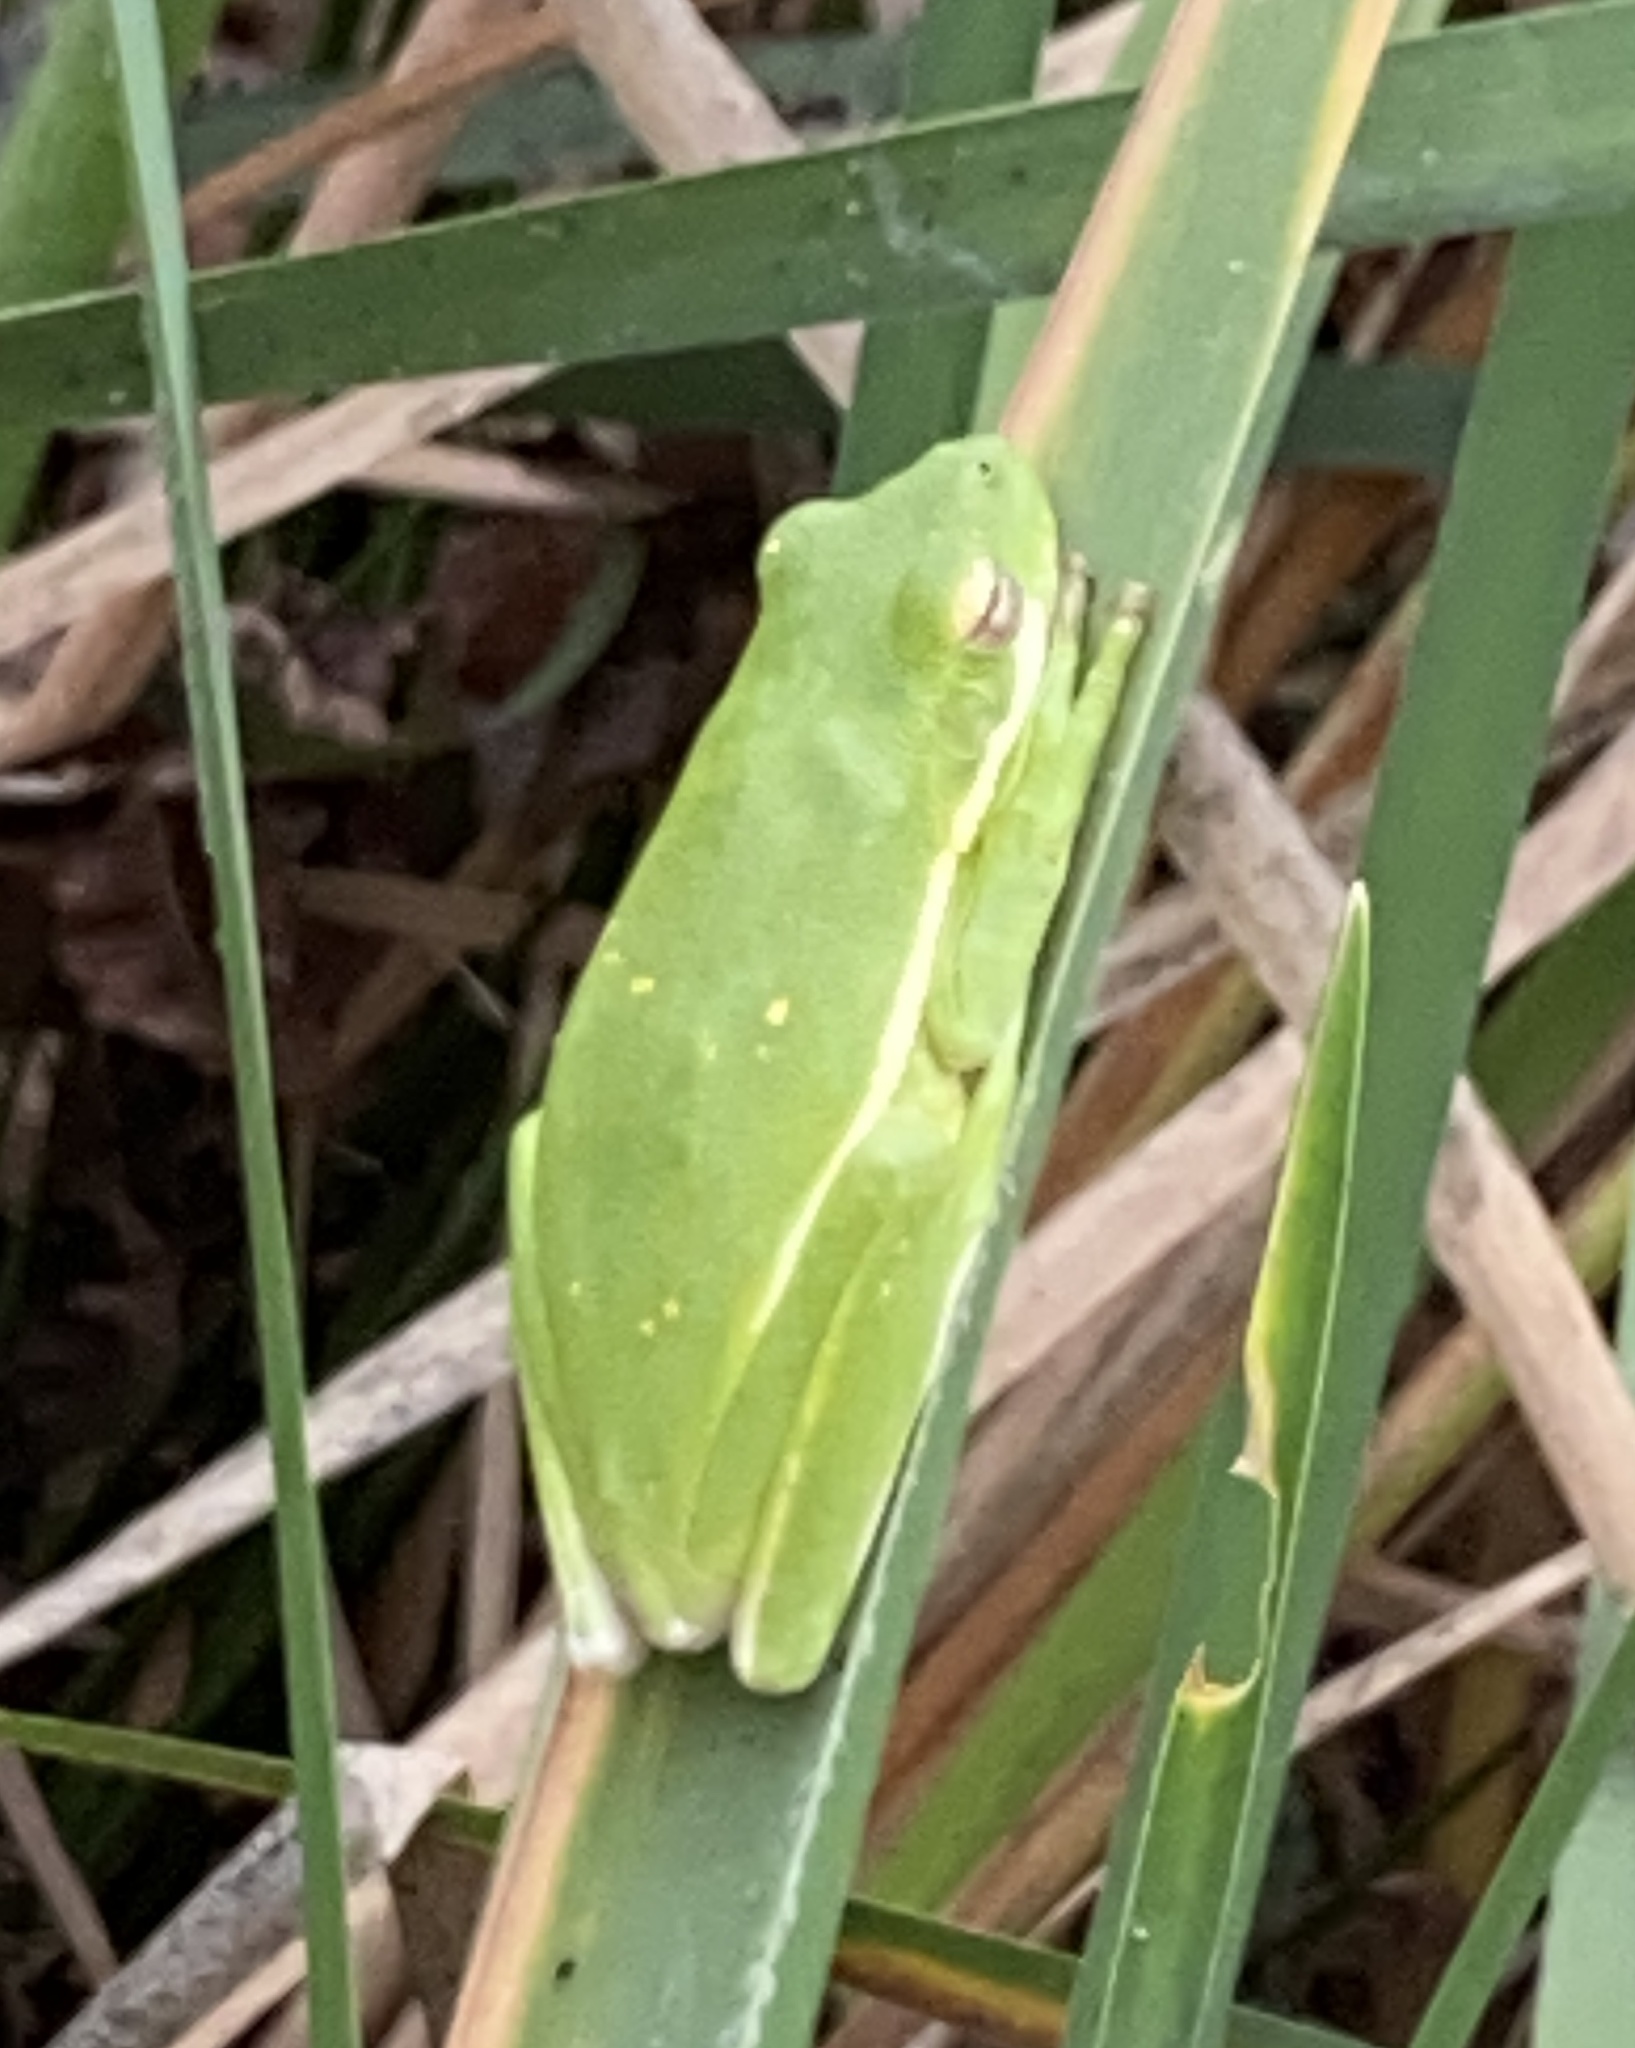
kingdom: Animalia
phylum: Chordata
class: Amphibia
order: Anura
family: Hylidae
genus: Dryophytes
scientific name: Dryophytes cinereus
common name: Green treefrog
